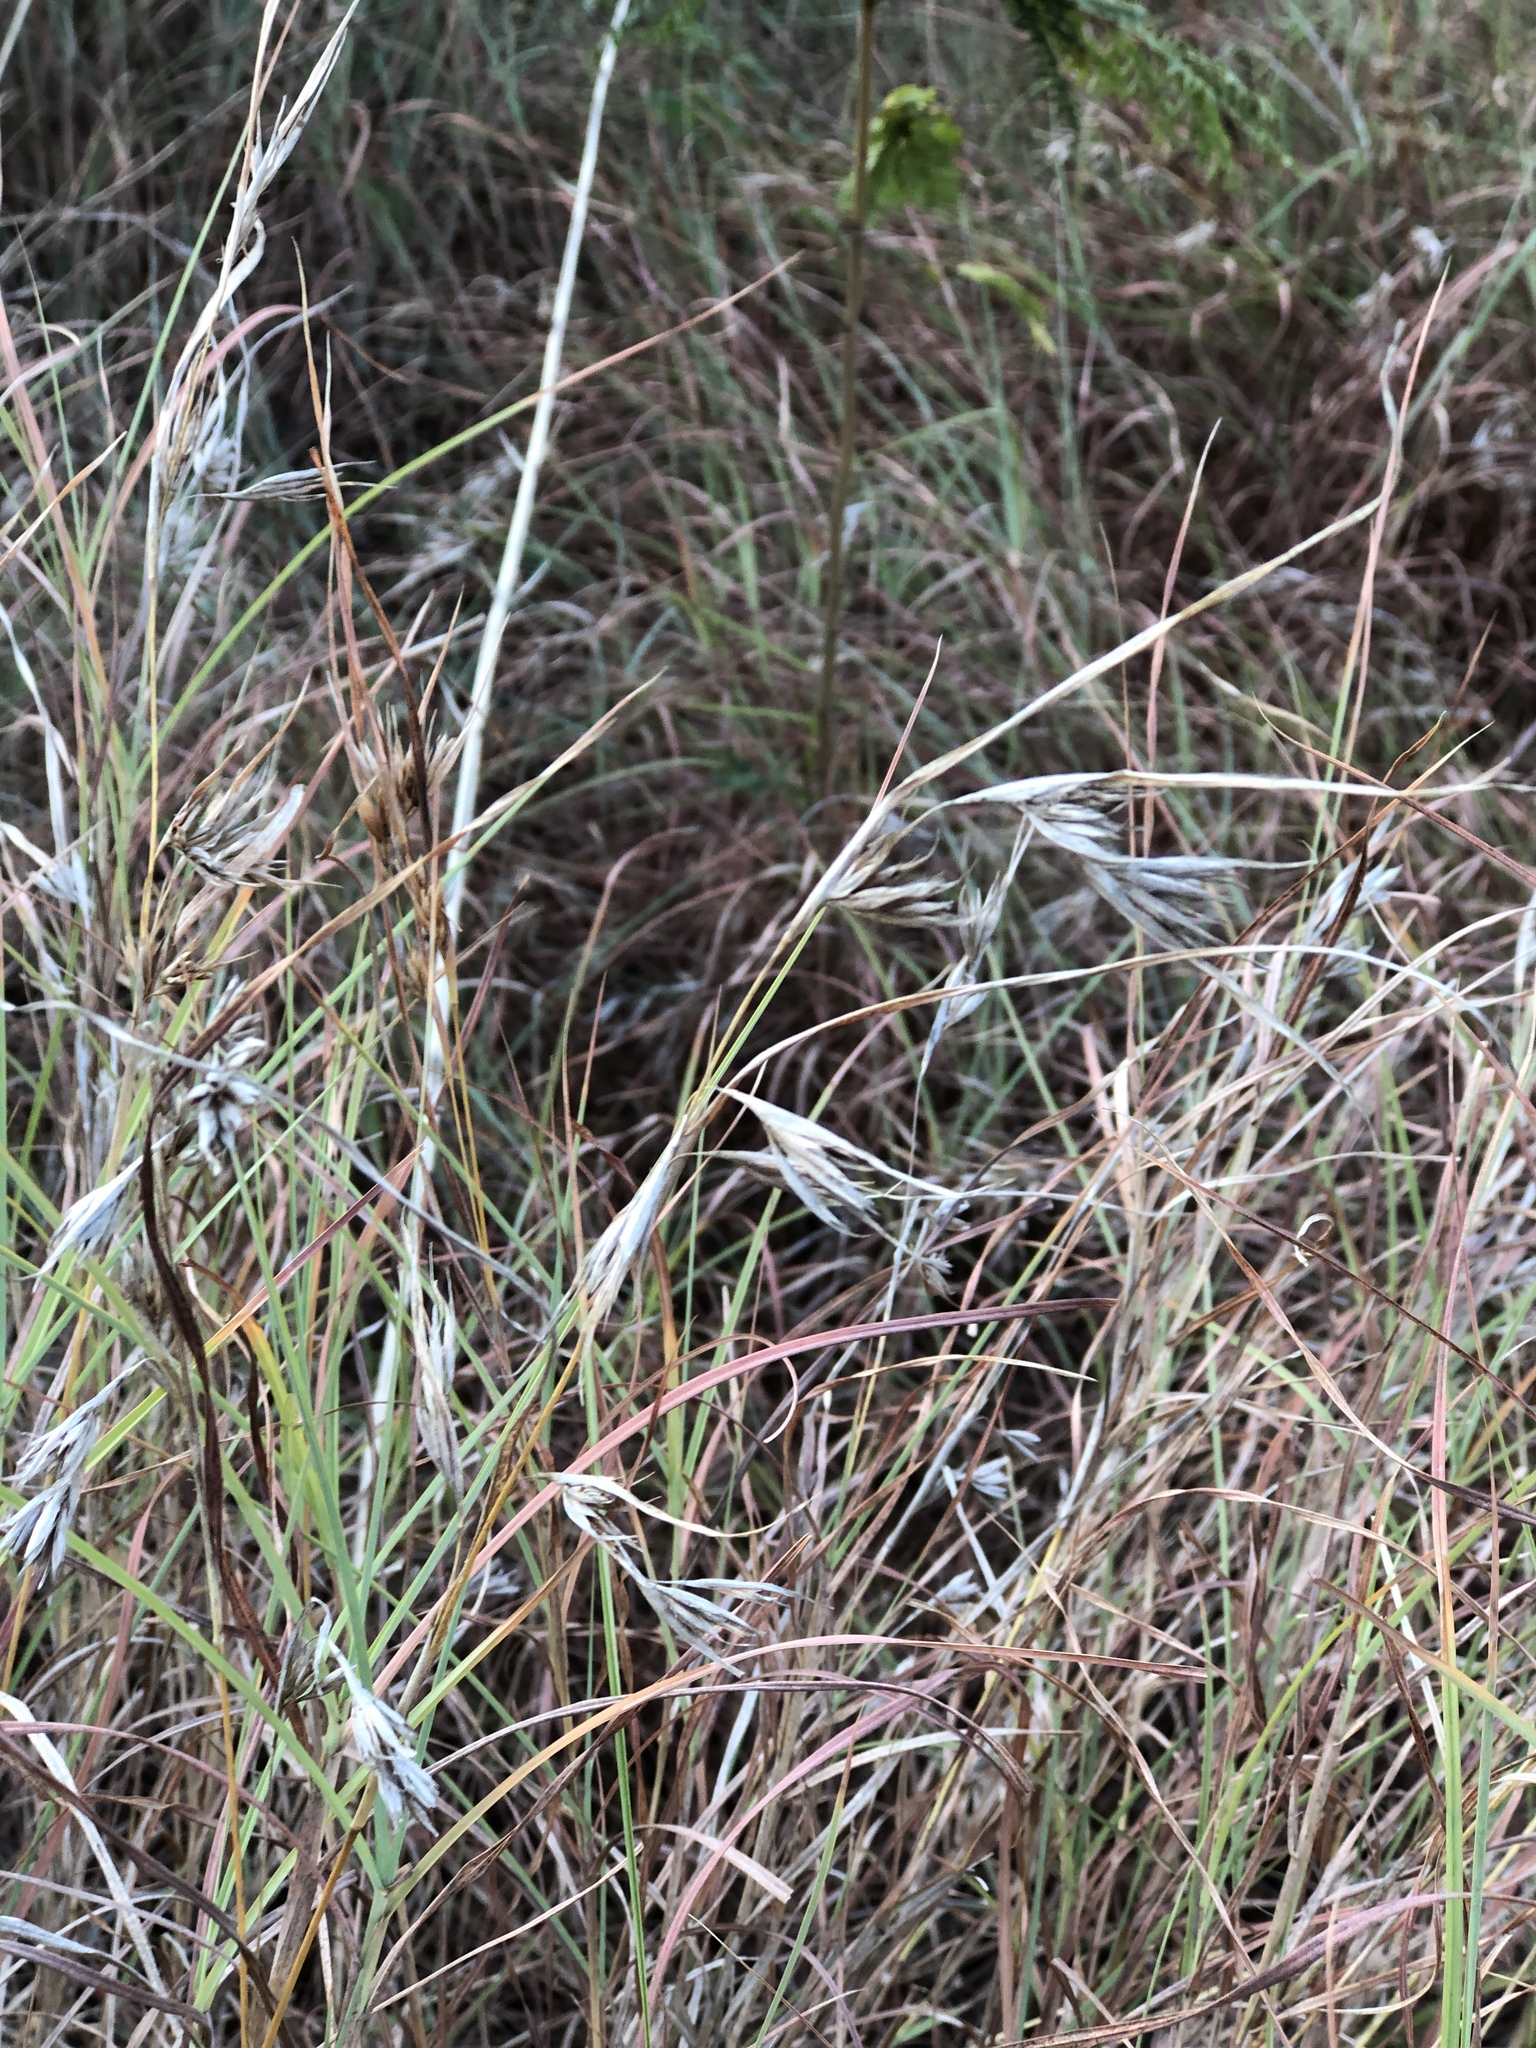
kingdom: Plantae
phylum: Tracheophyta
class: Liliopsida
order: Poales
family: Poaceae
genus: Themeda
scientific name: Themeda triandra
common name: Kangaroo grass
